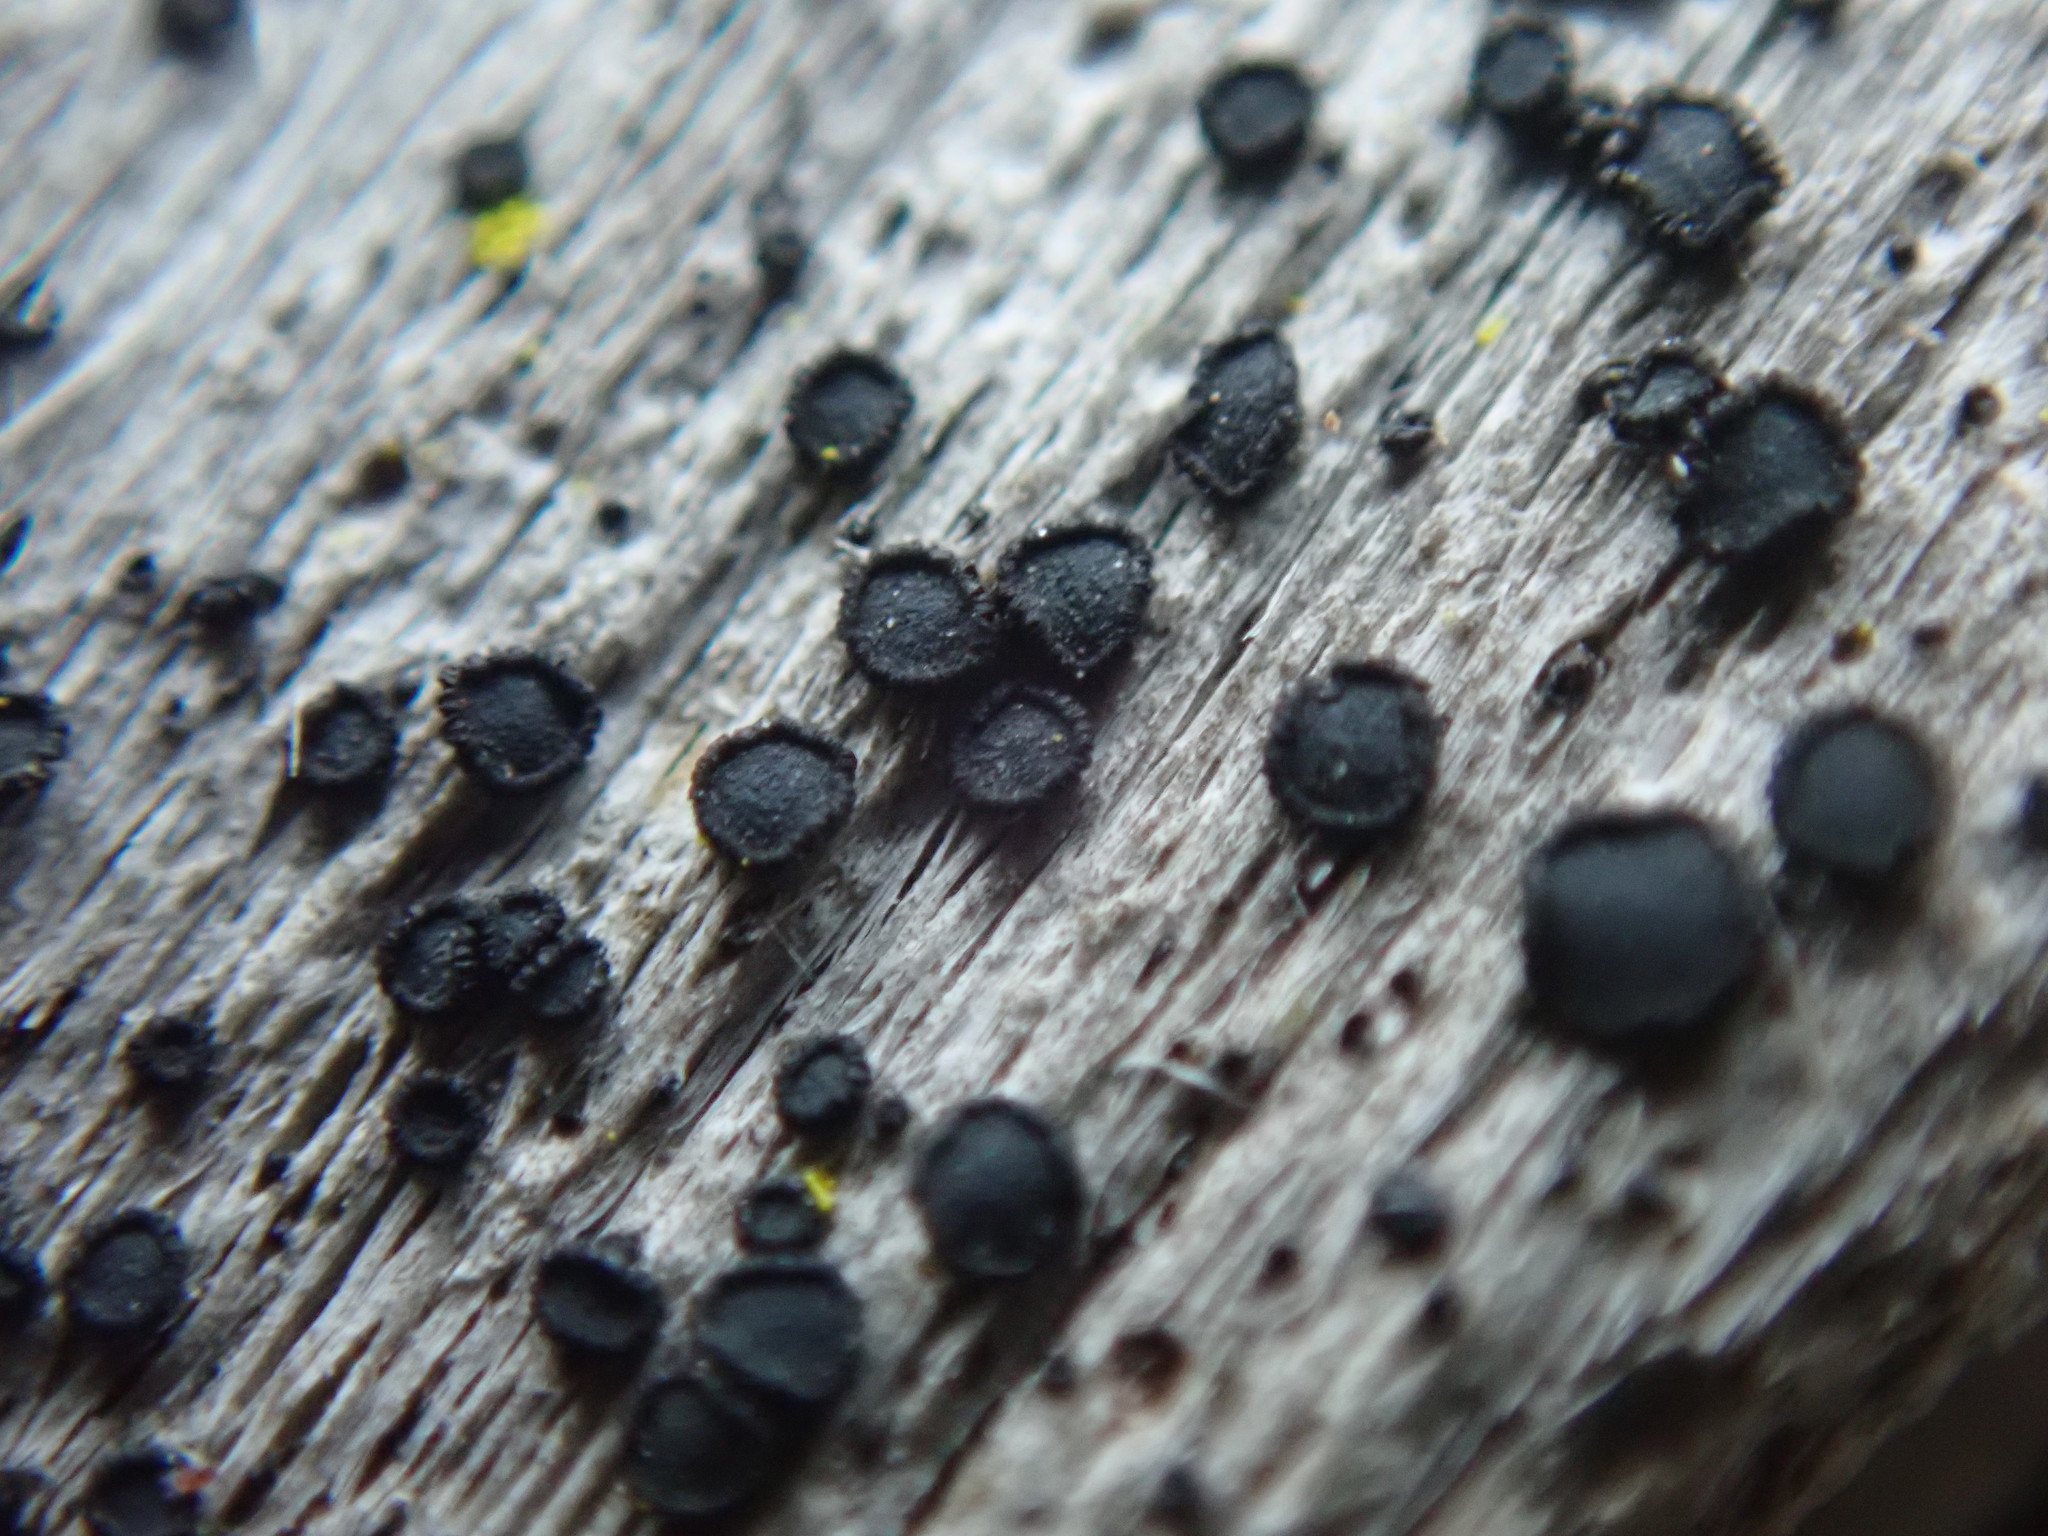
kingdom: Fungi
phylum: Ascomycota
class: Arthoniomycetes
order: Arthoniales
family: Opegraphaceae
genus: Cresponea
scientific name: Cresponea chloroconia
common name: Greenish old-wood lichen
